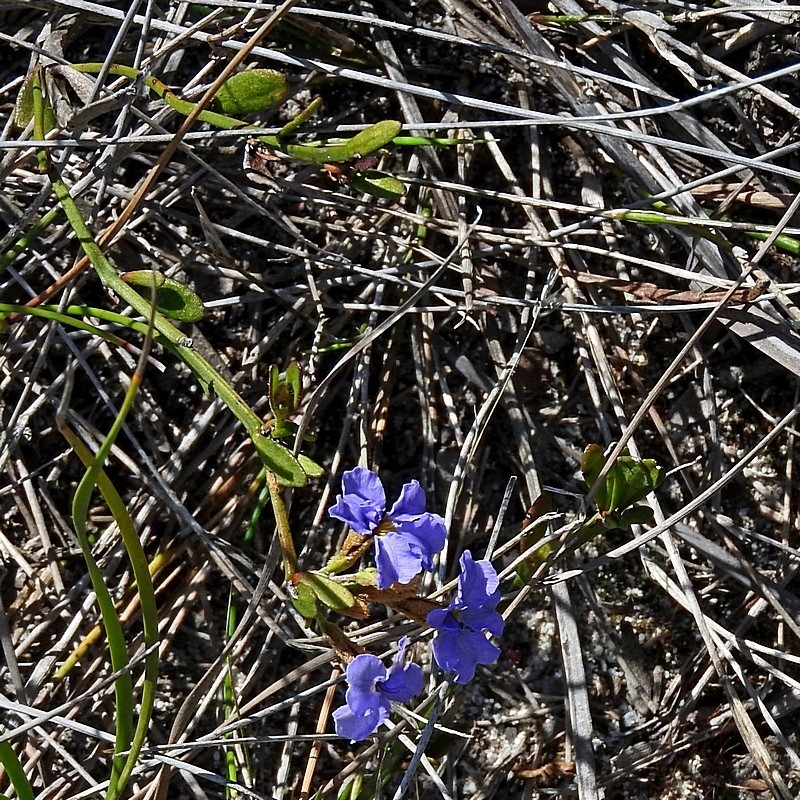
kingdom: Plantae
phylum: Tracheophyta
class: Magnoliopsida
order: Asterales
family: Goodeniaceae
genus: Dampiera
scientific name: Dampiera stricta
